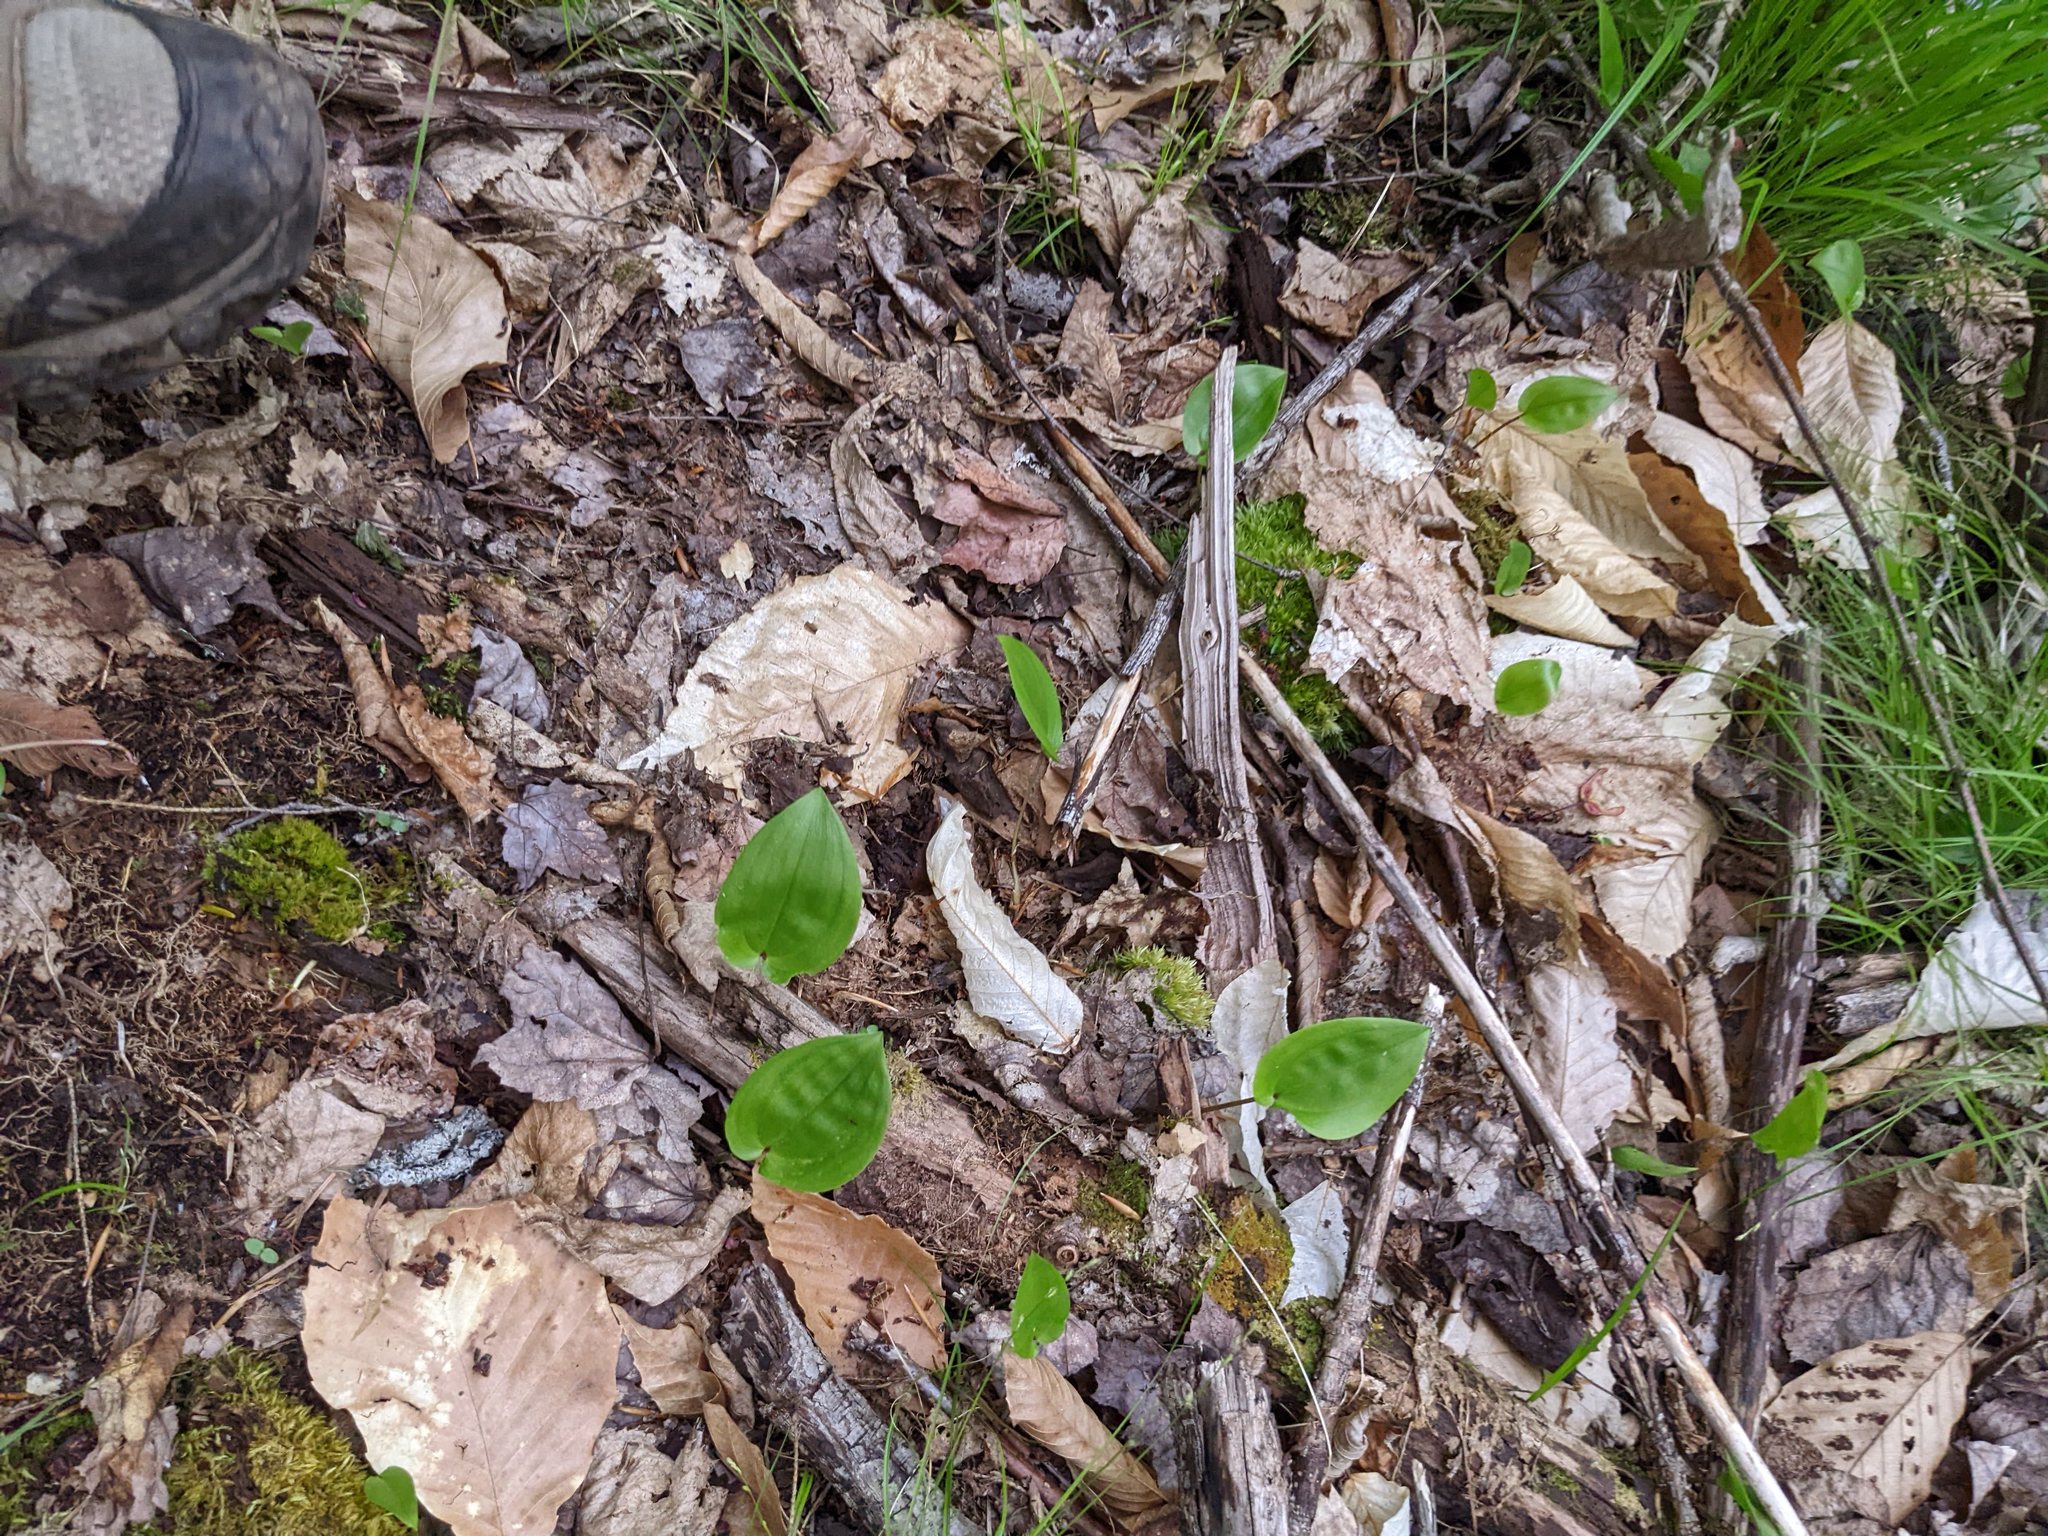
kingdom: Plantae
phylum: Tracheophyta
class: Liliopsida
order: Asparagales
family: Asparagaceae
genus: Maianthemum
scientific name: Maianthemum canadense
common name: False lily-of-the-valley
